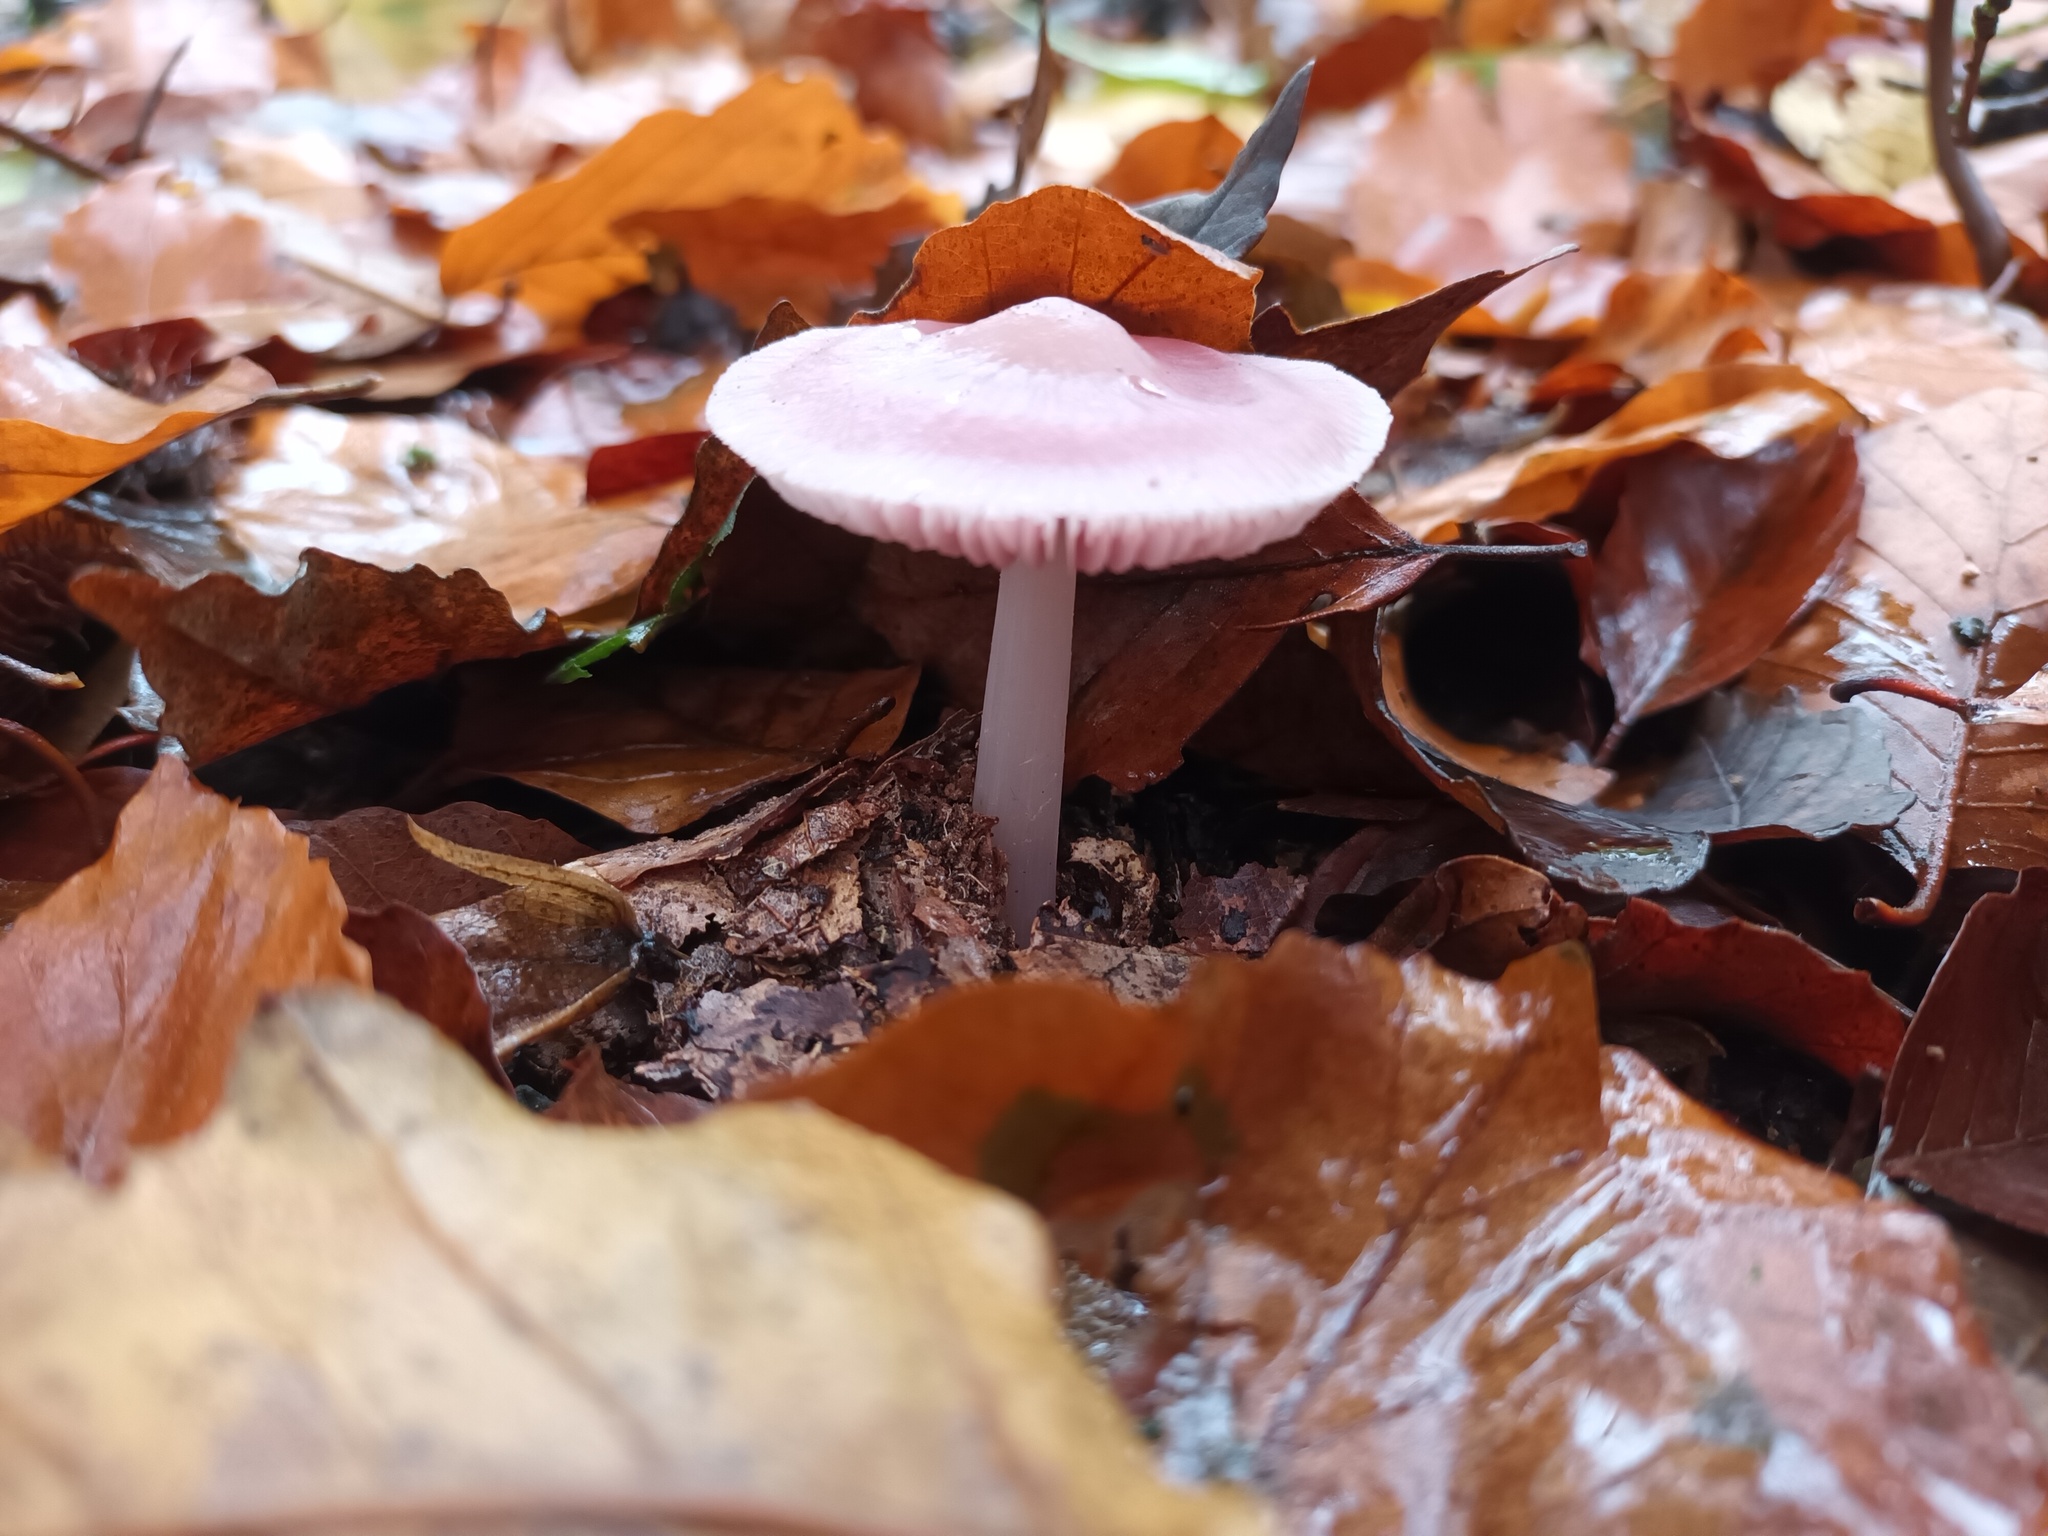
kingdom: Fungi
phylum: Basidiomycota
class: Agaricomycetes
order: Agaricales
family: Mycenaceae
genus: Mycena
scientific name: Mycena rosea
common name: Rosy bonnet
